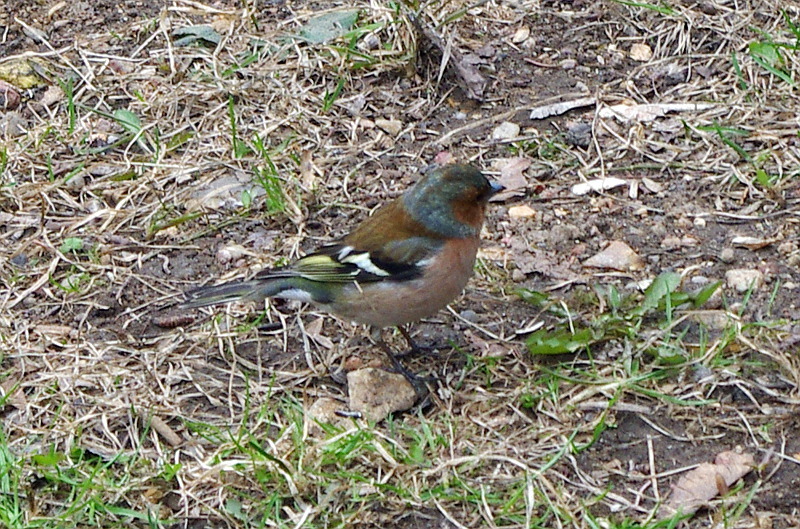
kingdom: Animalia
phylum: Chordata
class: Aves
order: Passeriformes
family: Fringillidae
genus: Fringilla
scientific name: Fringilla coelebs
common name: Common chaffinch
